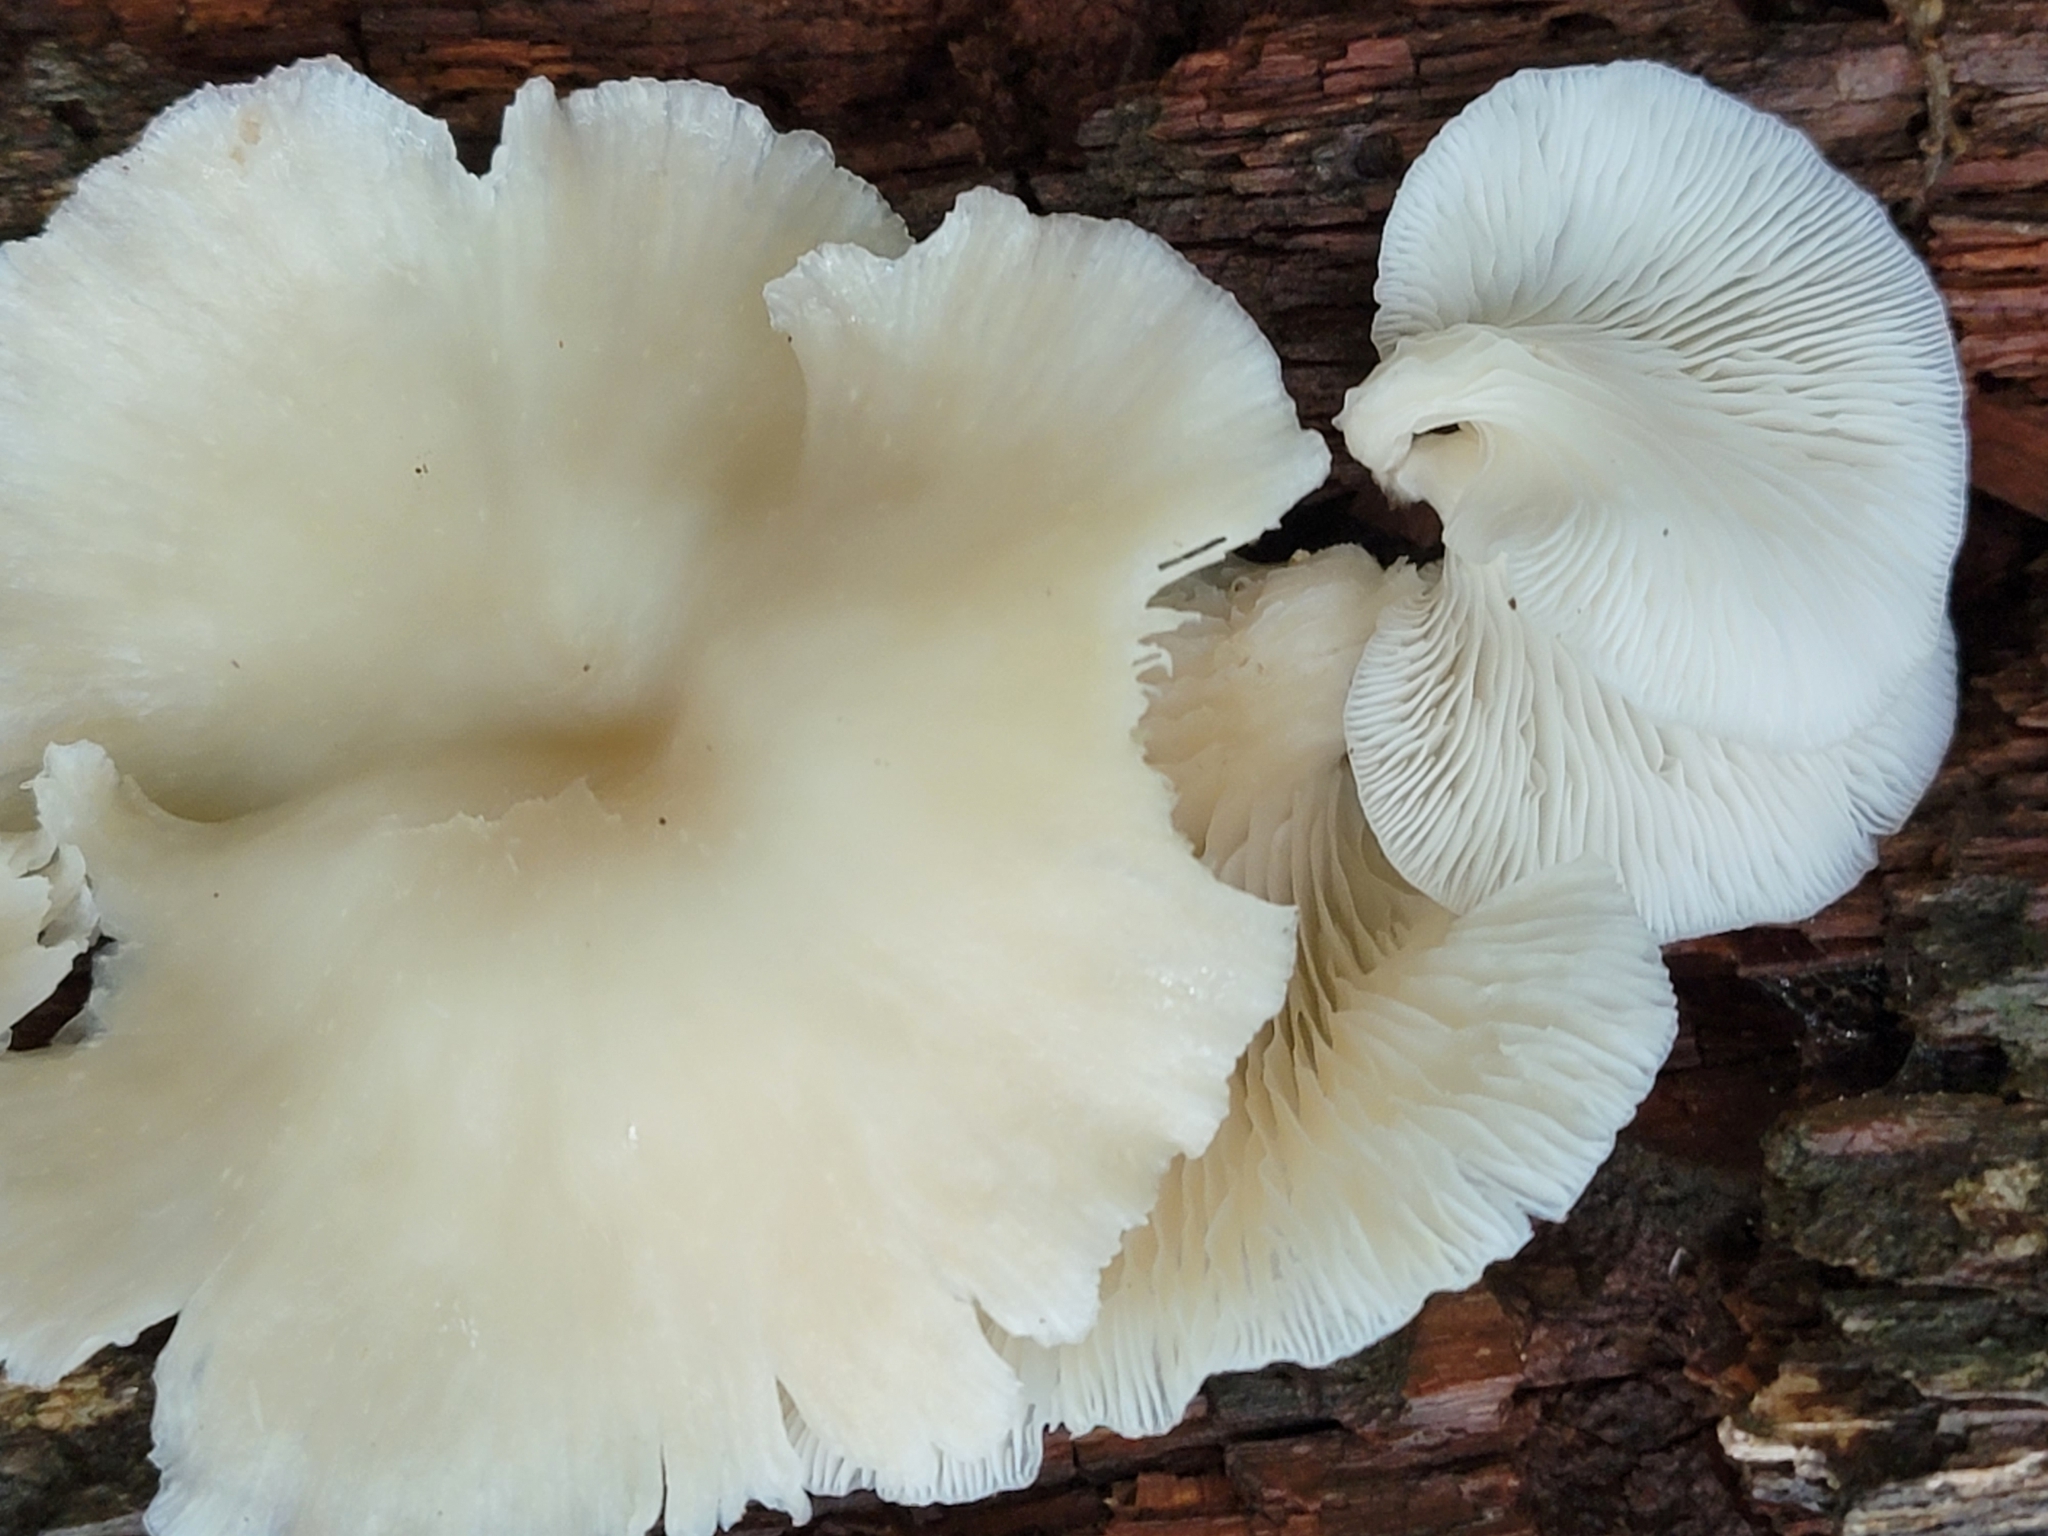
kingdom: Fungi
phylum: Basidiomycota
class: Agaricomycetes
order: Agaricales
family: Pleurotaceae
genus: Pleurotus
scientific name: Pleurotus pulmonarius
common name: Pale oyster
